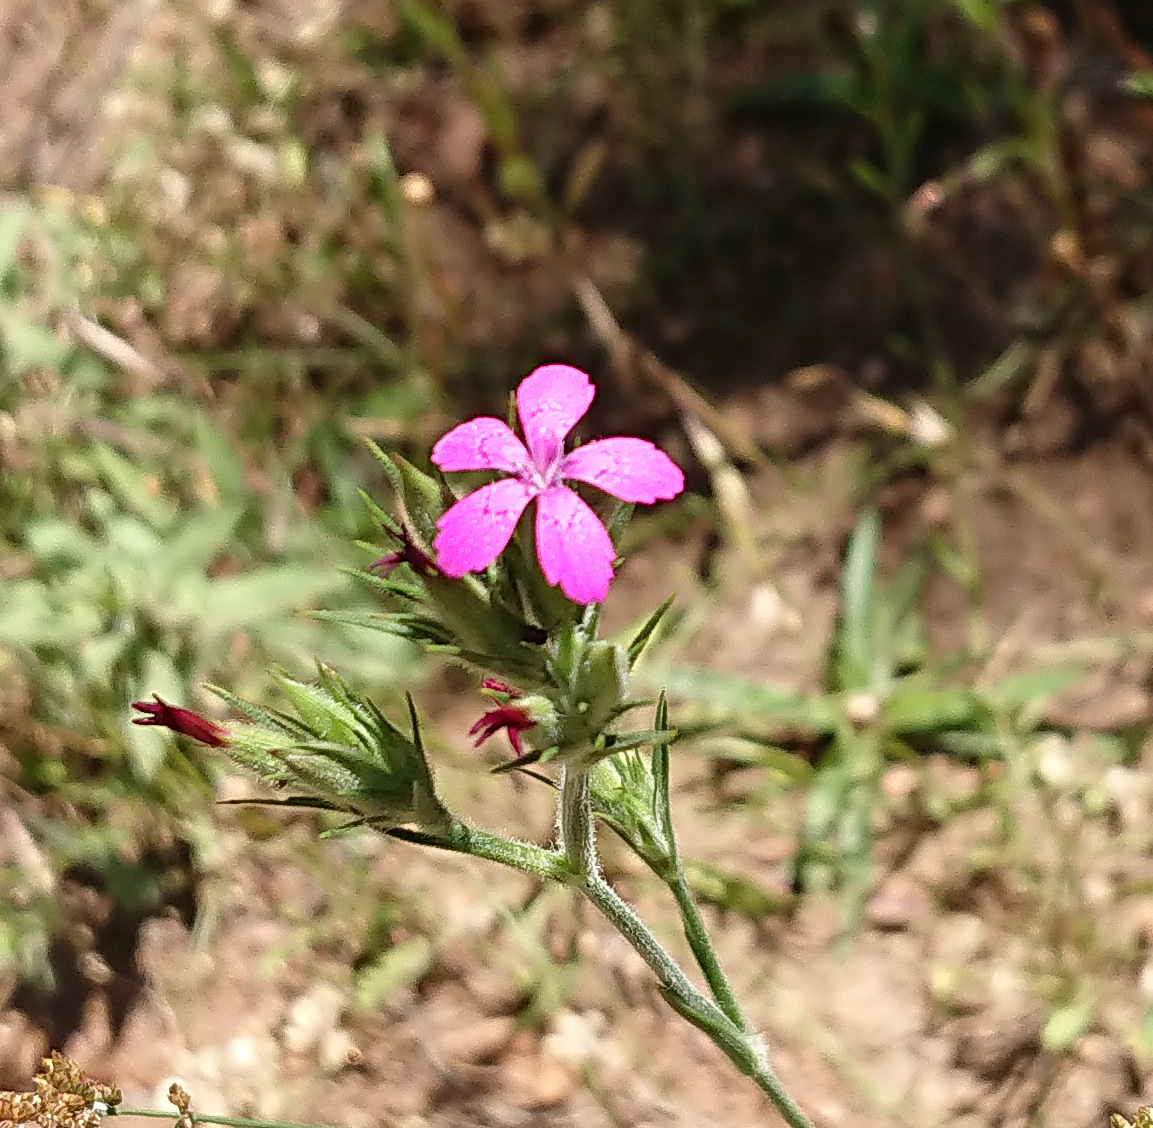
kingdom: Plantae
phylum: Tracheophyta
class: Magnoliopsida
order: Caryophyllales
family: Caryophyllaceae
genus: Dianthus
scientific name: Dianthus armeria
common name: Deptford pink
